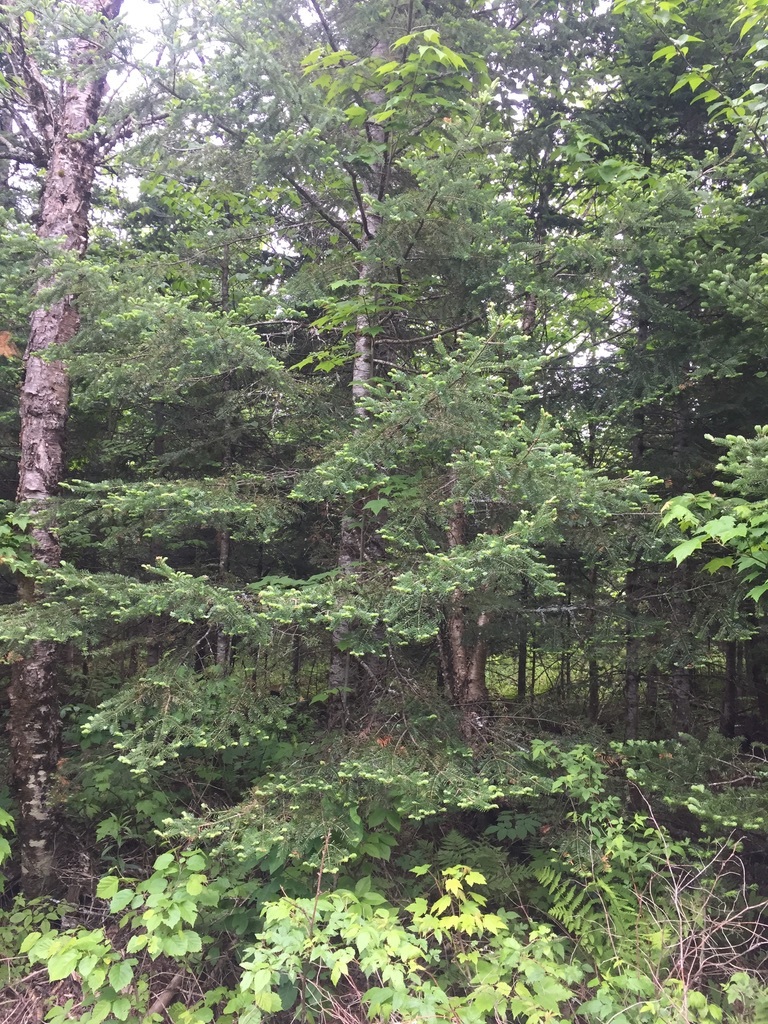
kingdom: Plantae
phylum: Tracheophyta
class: Pinopsida
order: Pinales
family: Pinaceae
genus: Abies
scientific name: Abies balsamea
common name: Balsam fir
